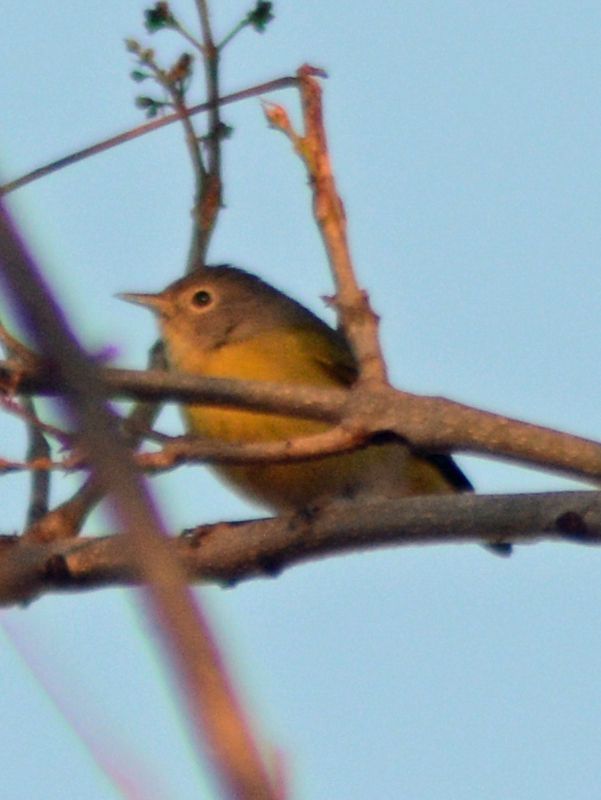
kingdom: Animalia
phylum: Chordata
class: Aves
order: Passeriformes
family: Parulidae
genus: Leiothlypis
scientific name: Leiothlypis ruficapilla
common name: Nashville warbler
